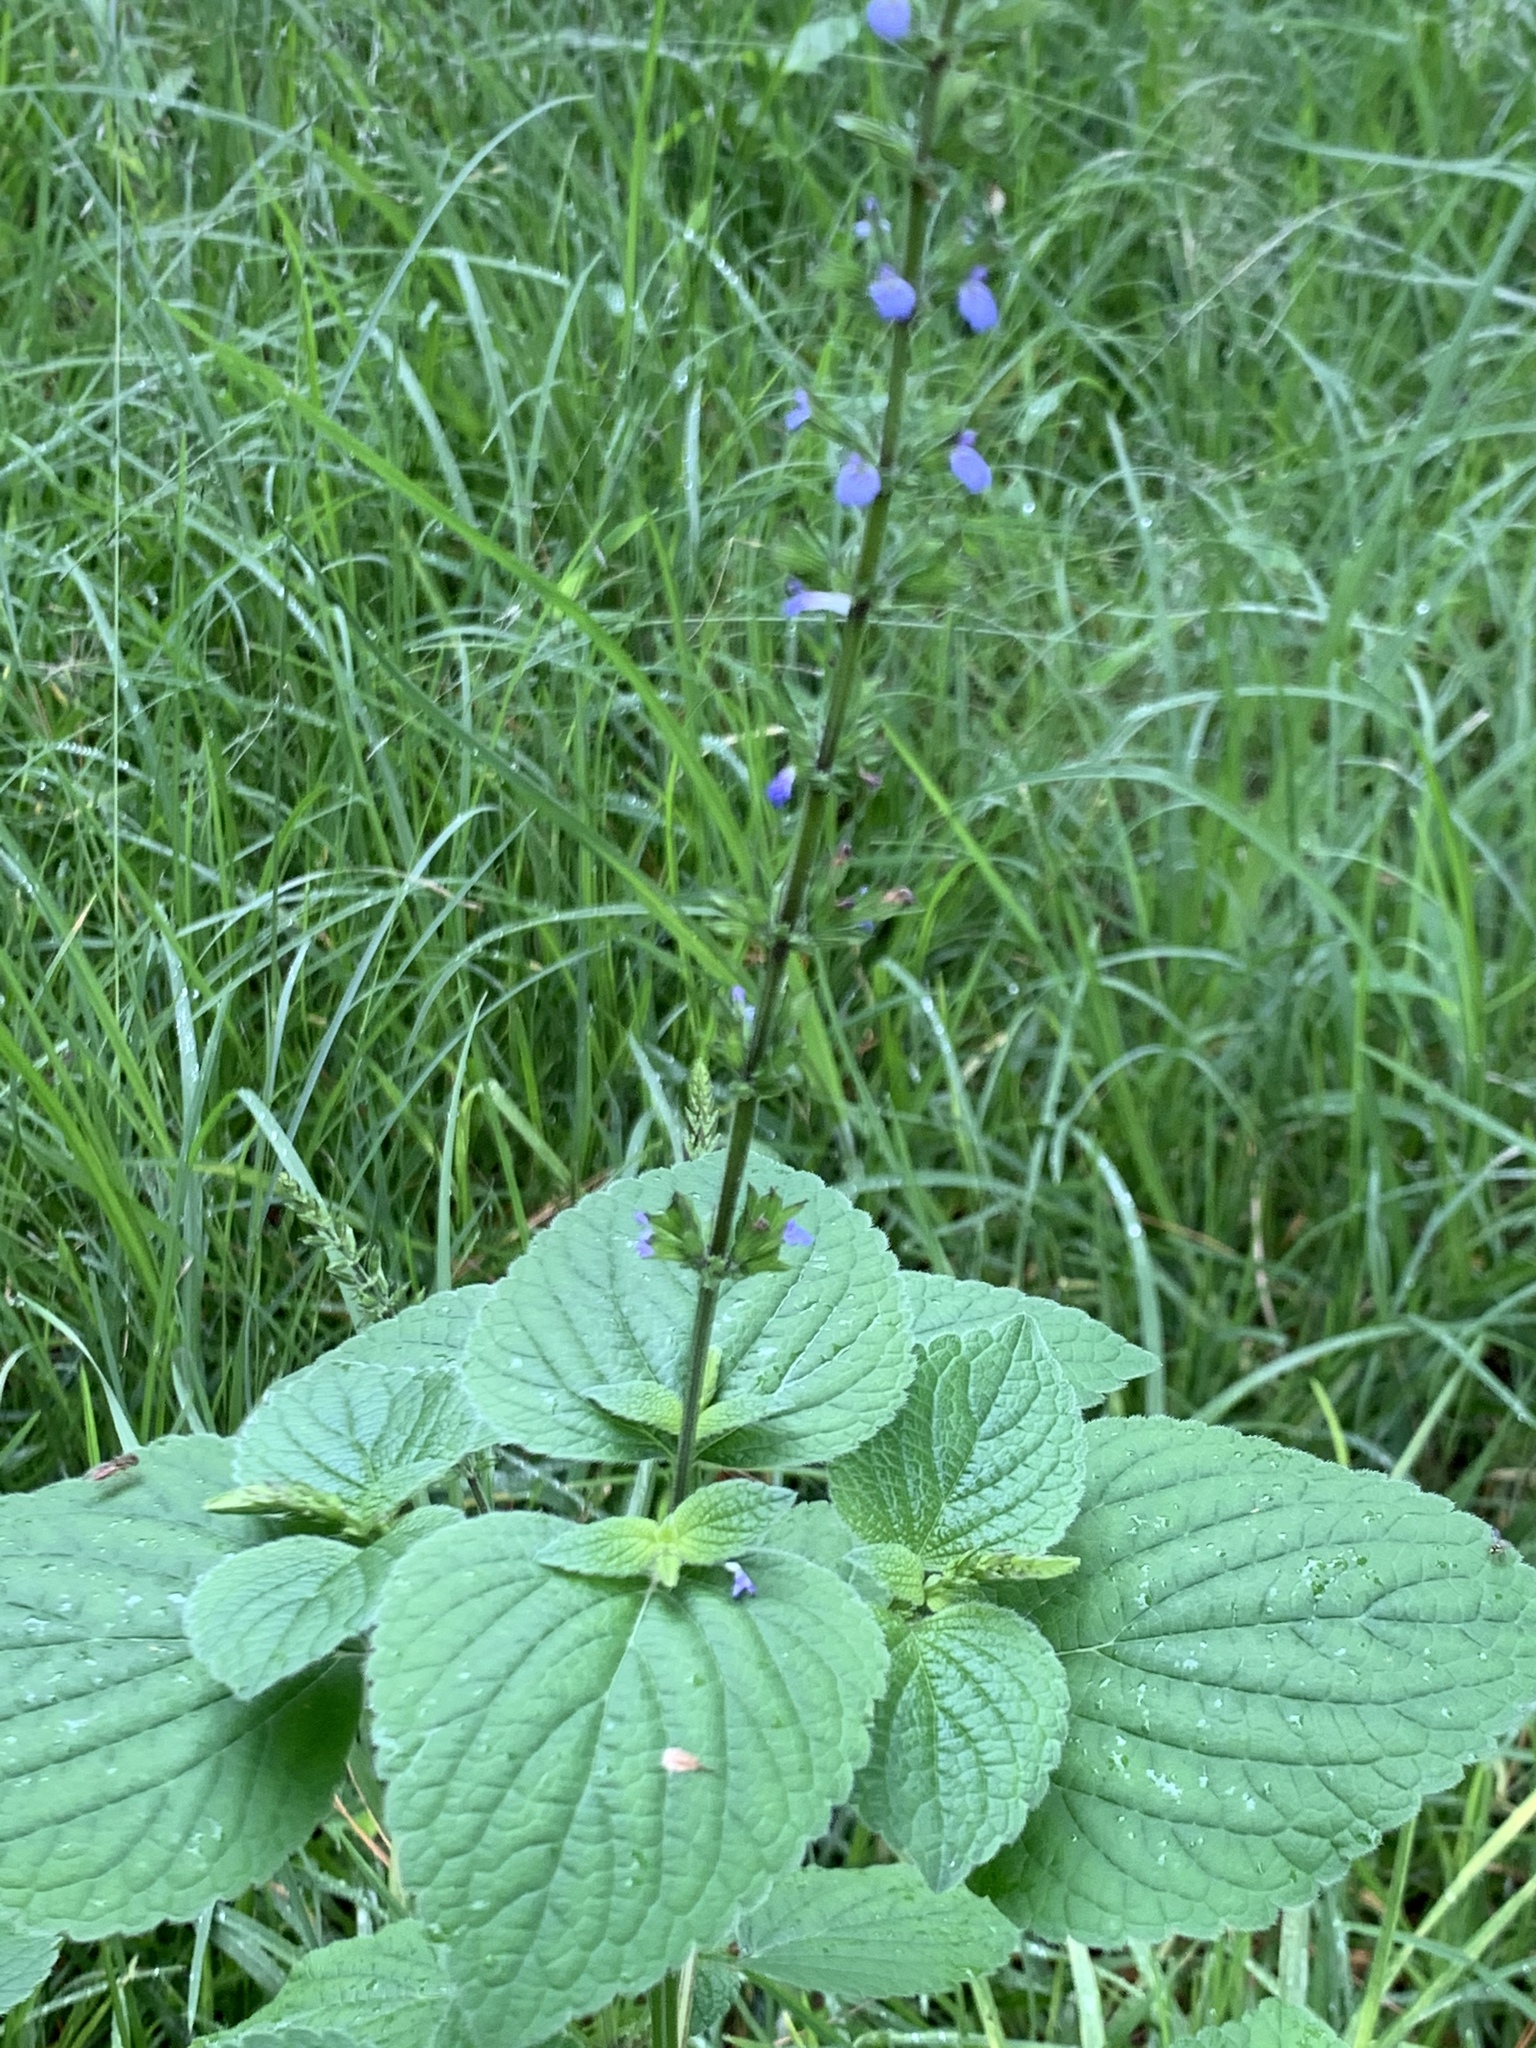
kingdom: Plantae
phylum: Tracheophyta
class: Magnoliopsida
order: Lamiales
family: Lamiaceae
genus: Salvia
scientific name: Salvia tiliifolia
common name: Lindenleaf sage
